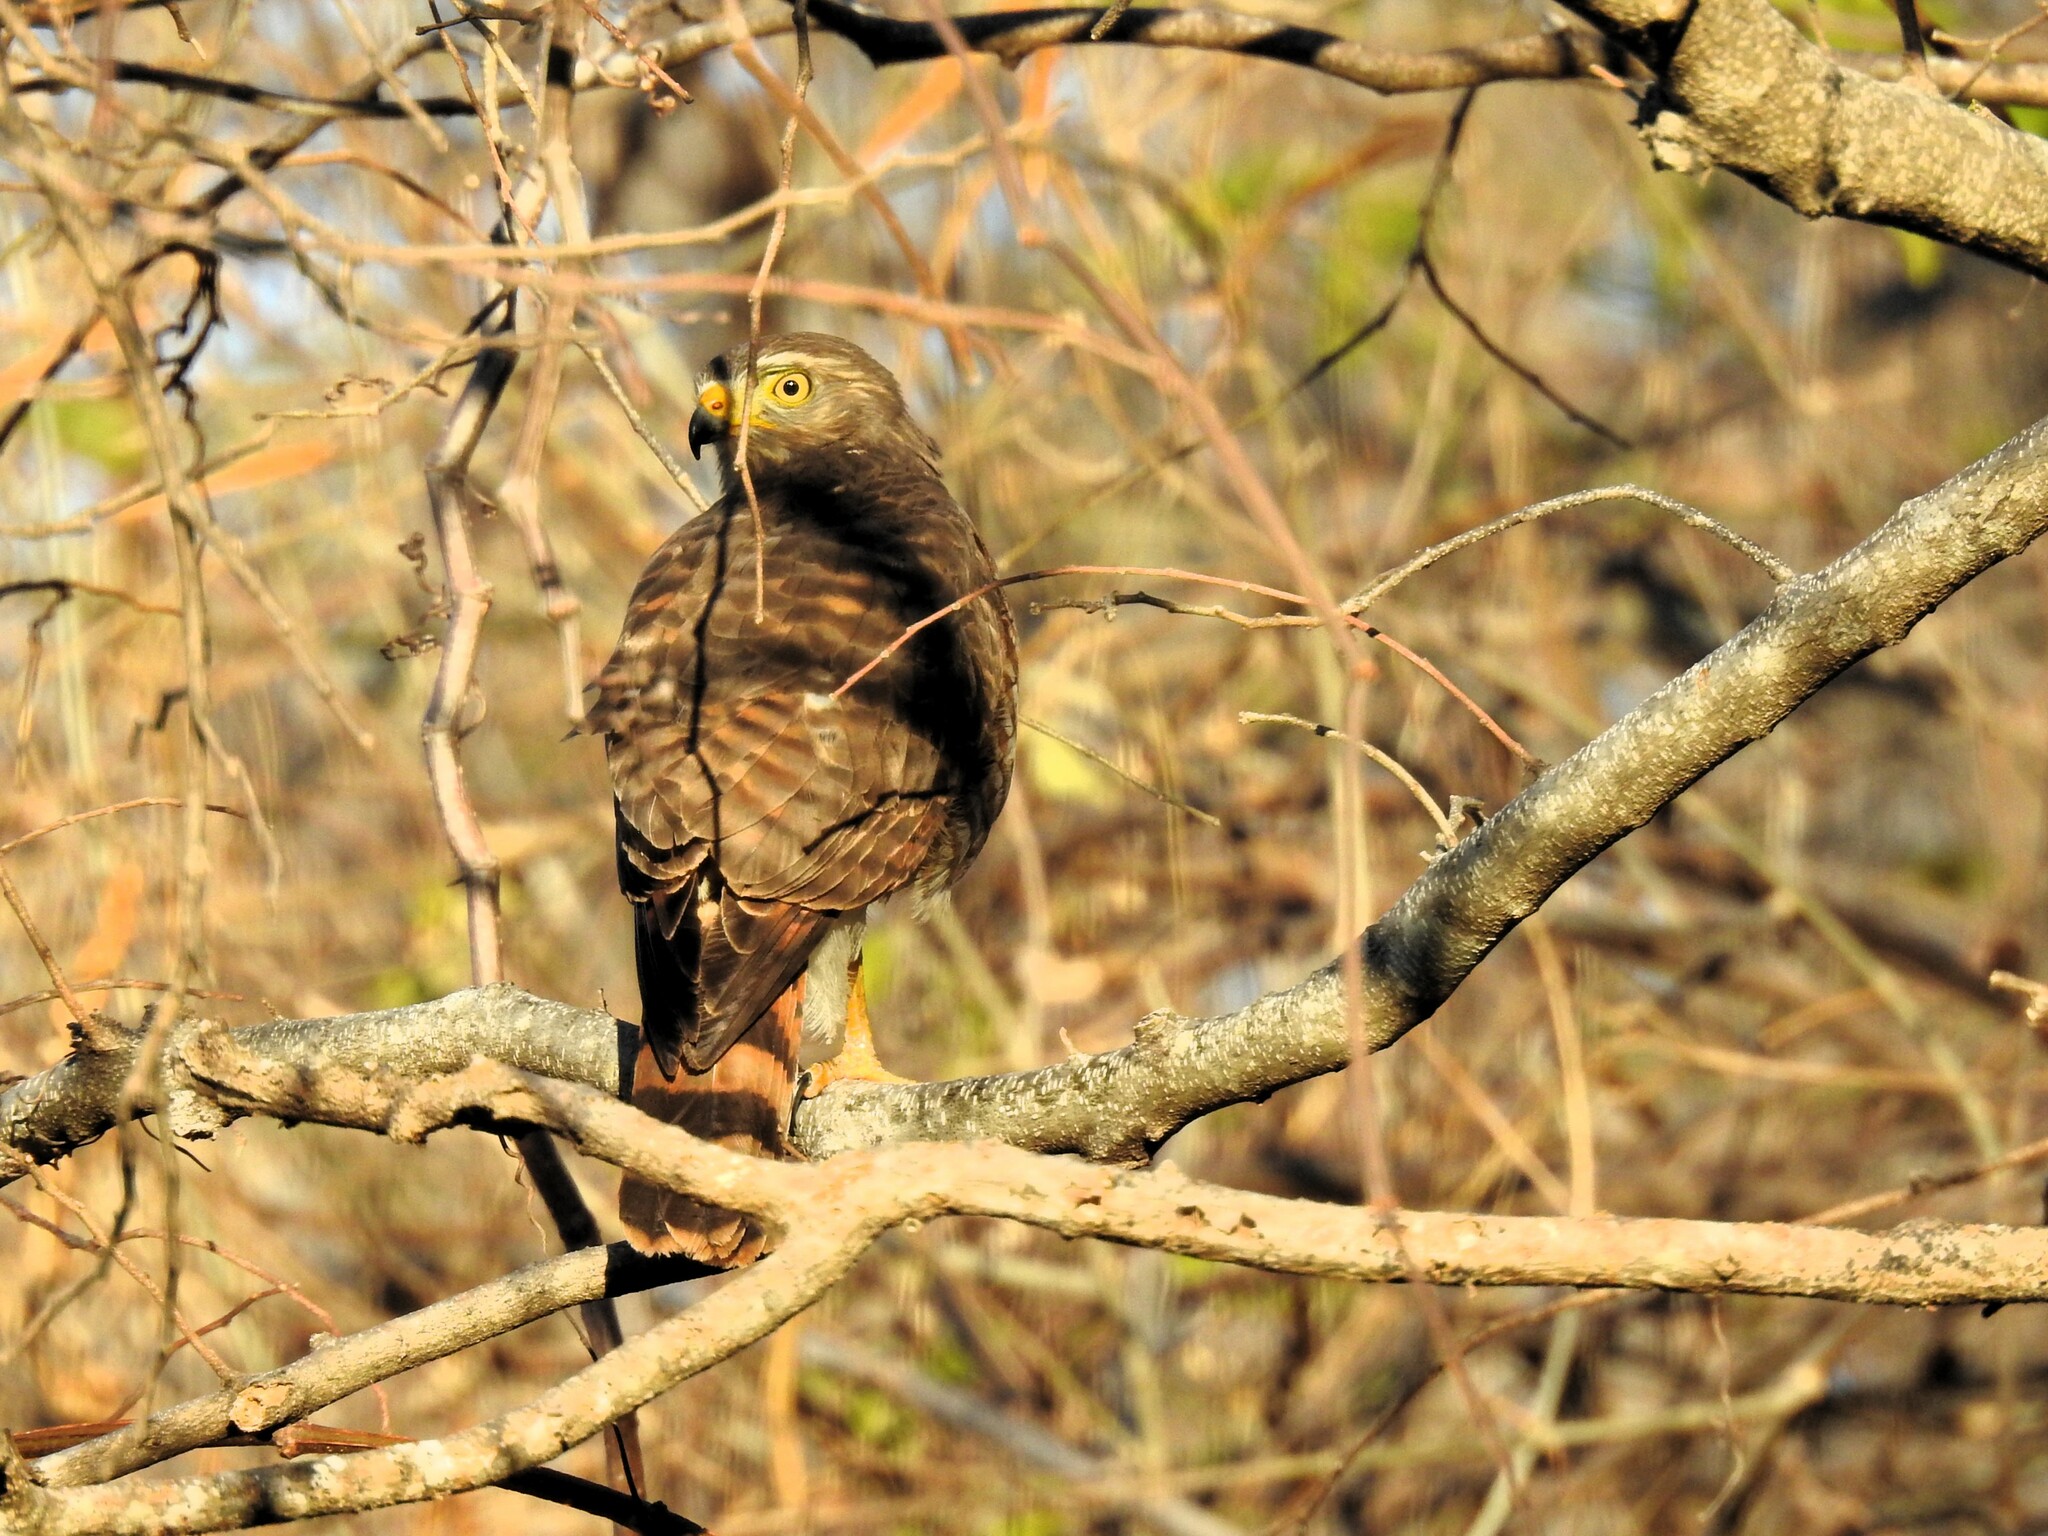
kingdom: Animalia
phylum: Chordata
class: Aves
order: Accipitriformes
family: Accipitridae
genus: Rupornis
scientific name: Rupornis magnirostris
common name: Roadside hawk
